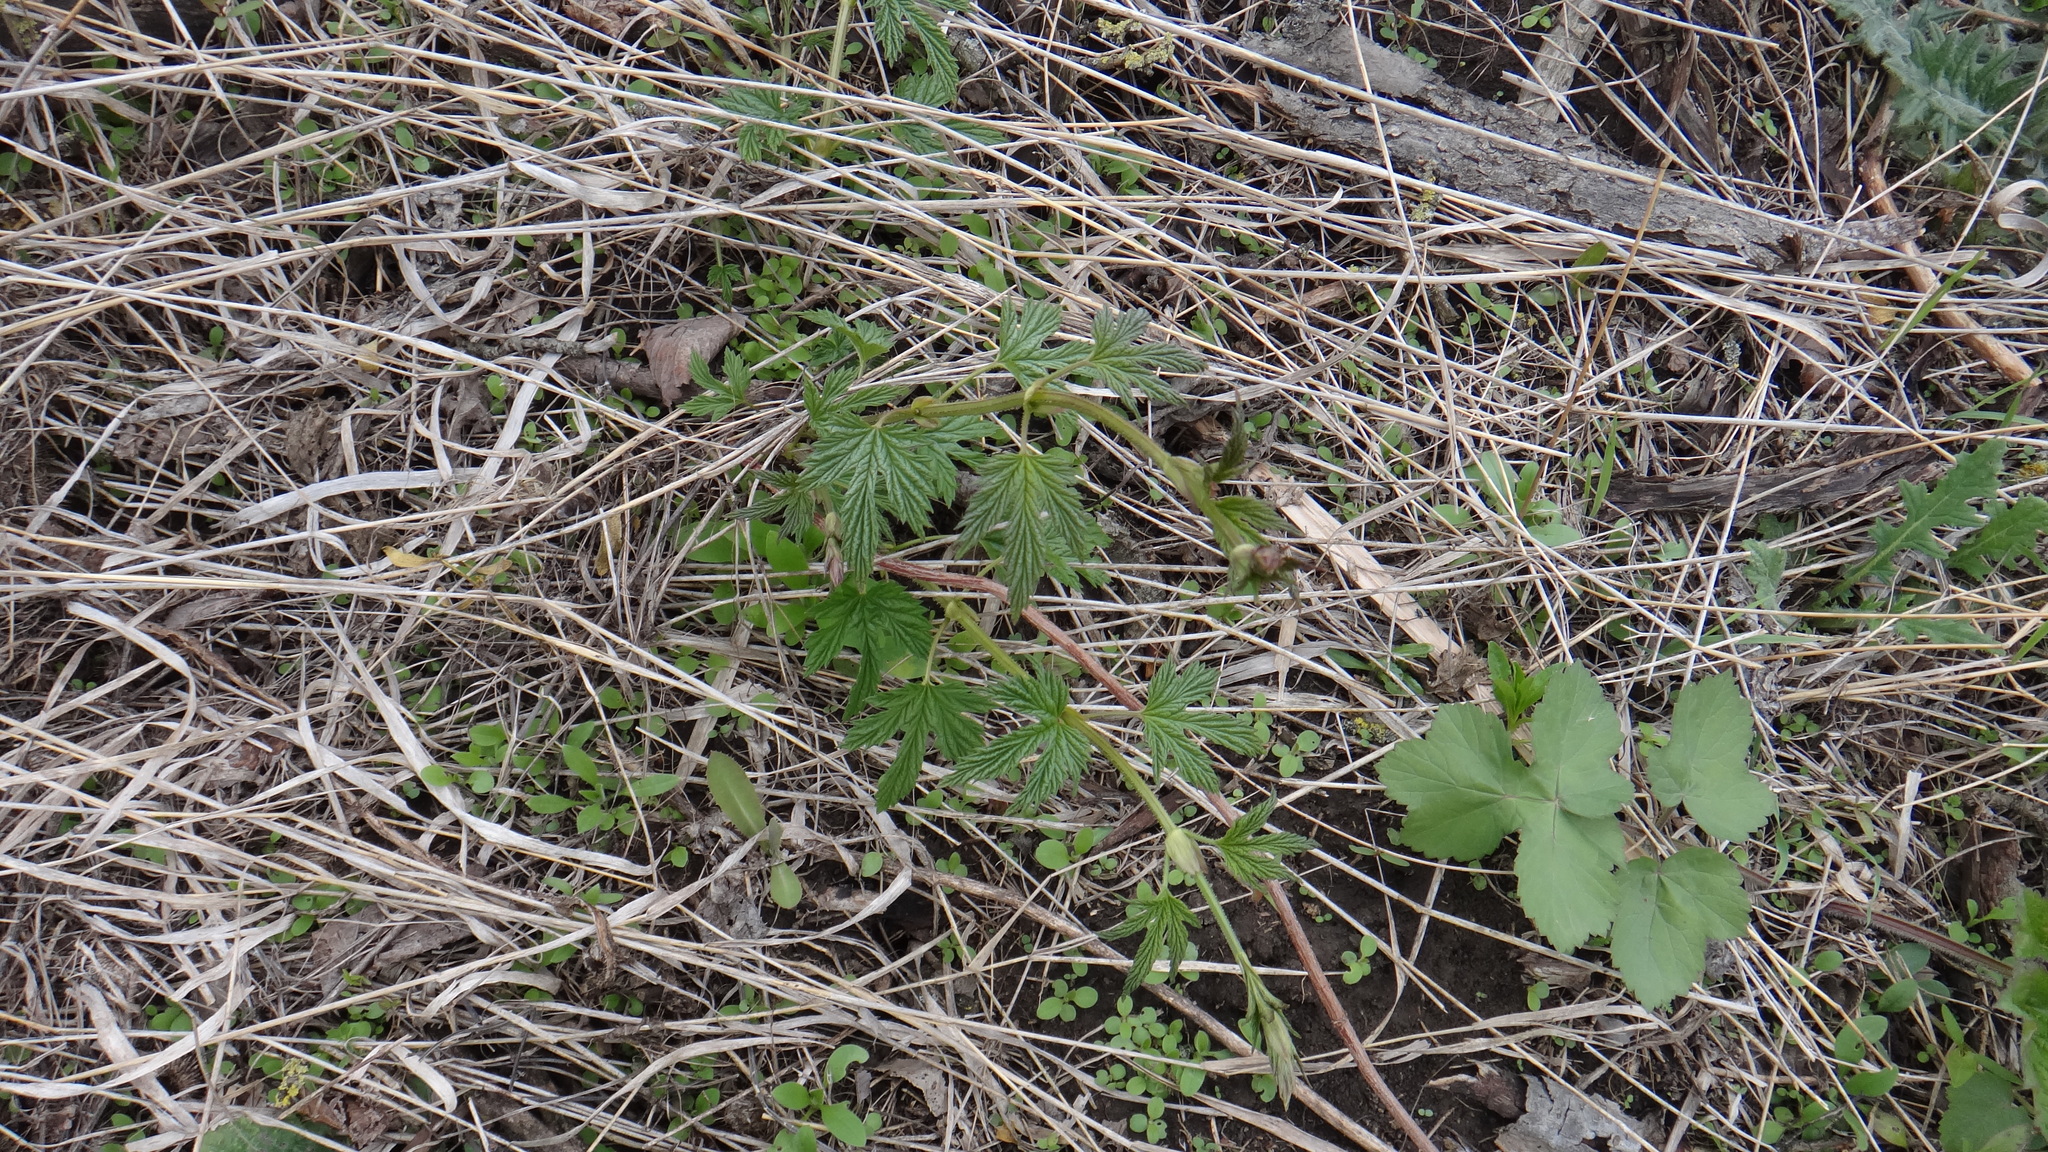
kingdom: Plantae
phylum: Tracheophyta
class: Magnoliopsida
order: Rosales
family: Cannabaceae
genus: Humulus
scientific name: Humulus lupulus
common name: Hop
